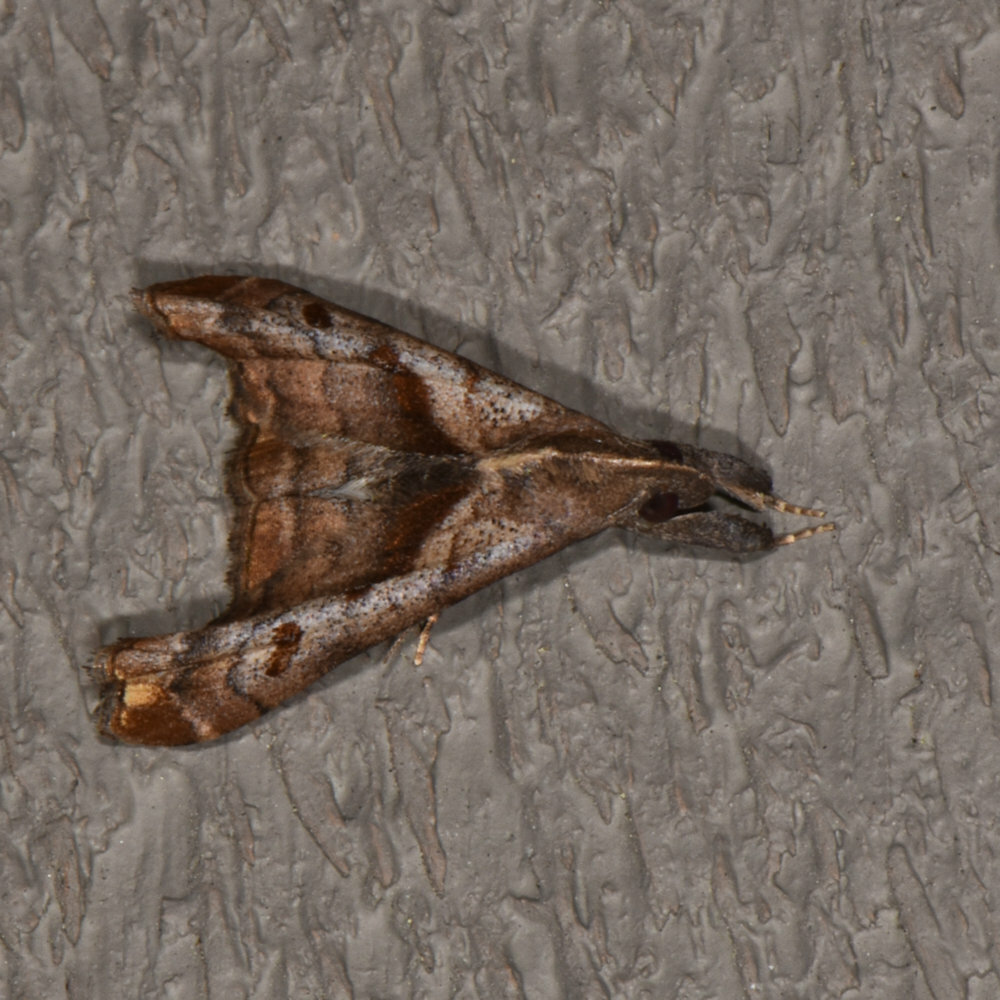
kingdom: Animalia
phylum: Arthropoda
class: Insecta
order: Lepidoptera
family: Erebidae
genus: Palthis
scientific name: Palthis angulalis
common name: Dark-spotted palthis moth
